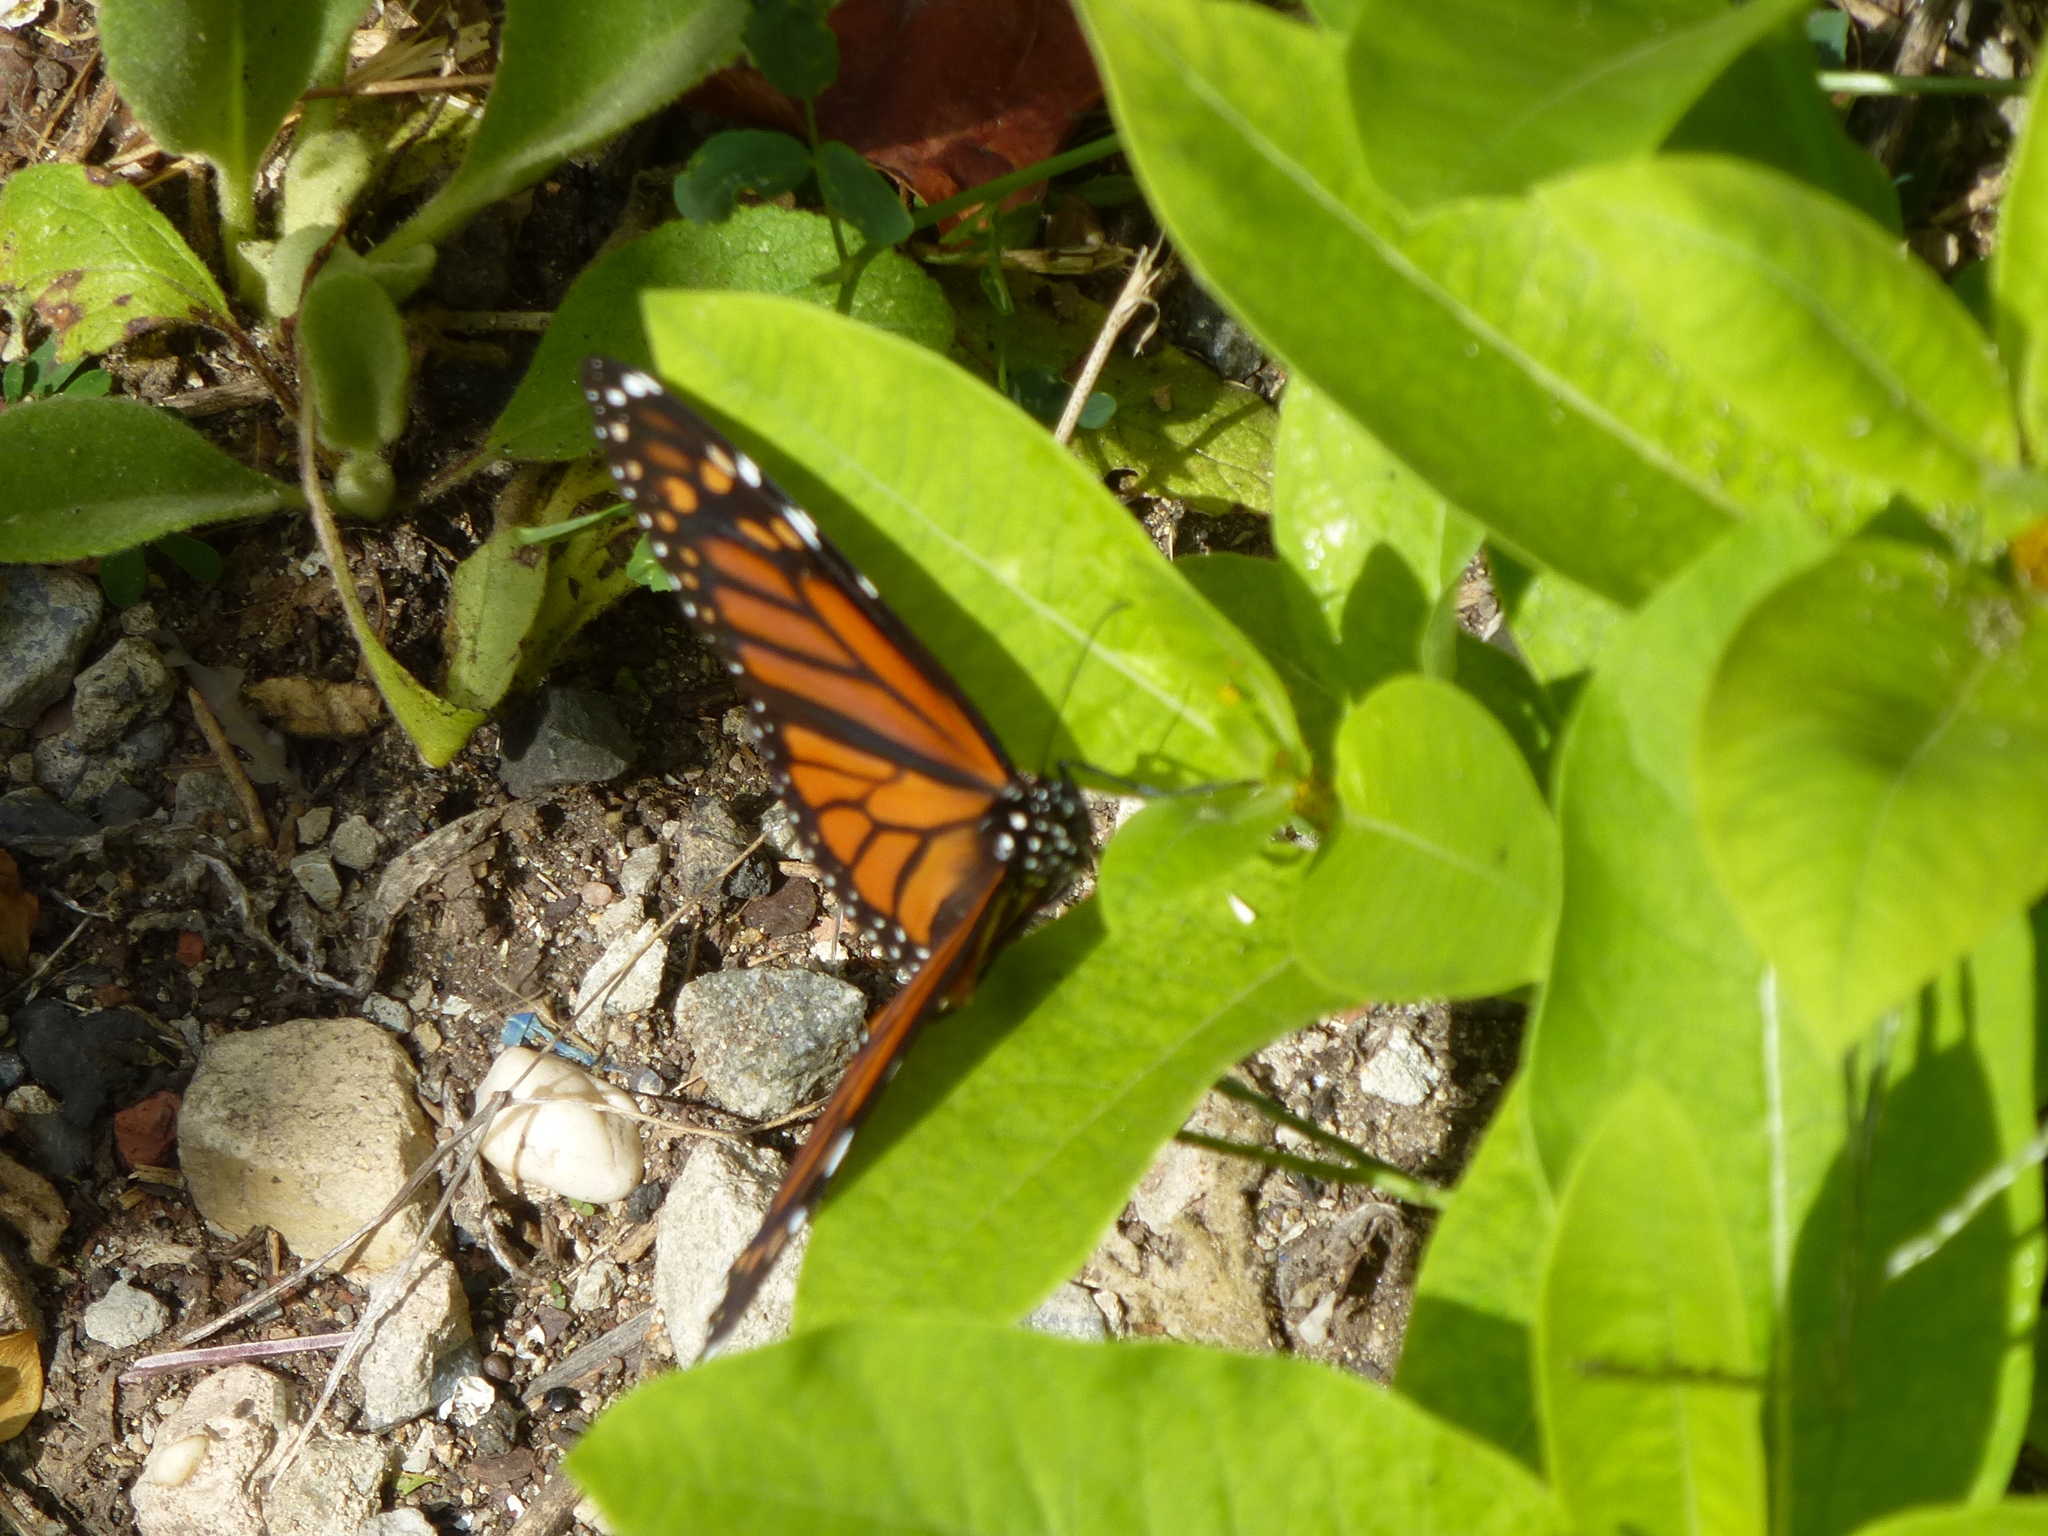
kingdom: Animalia
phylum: Arthropoda
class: Insecta
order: Lepidoptera
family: Nymphalidae
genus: Danaus
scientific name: Danaus plexippus
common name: Monarch
